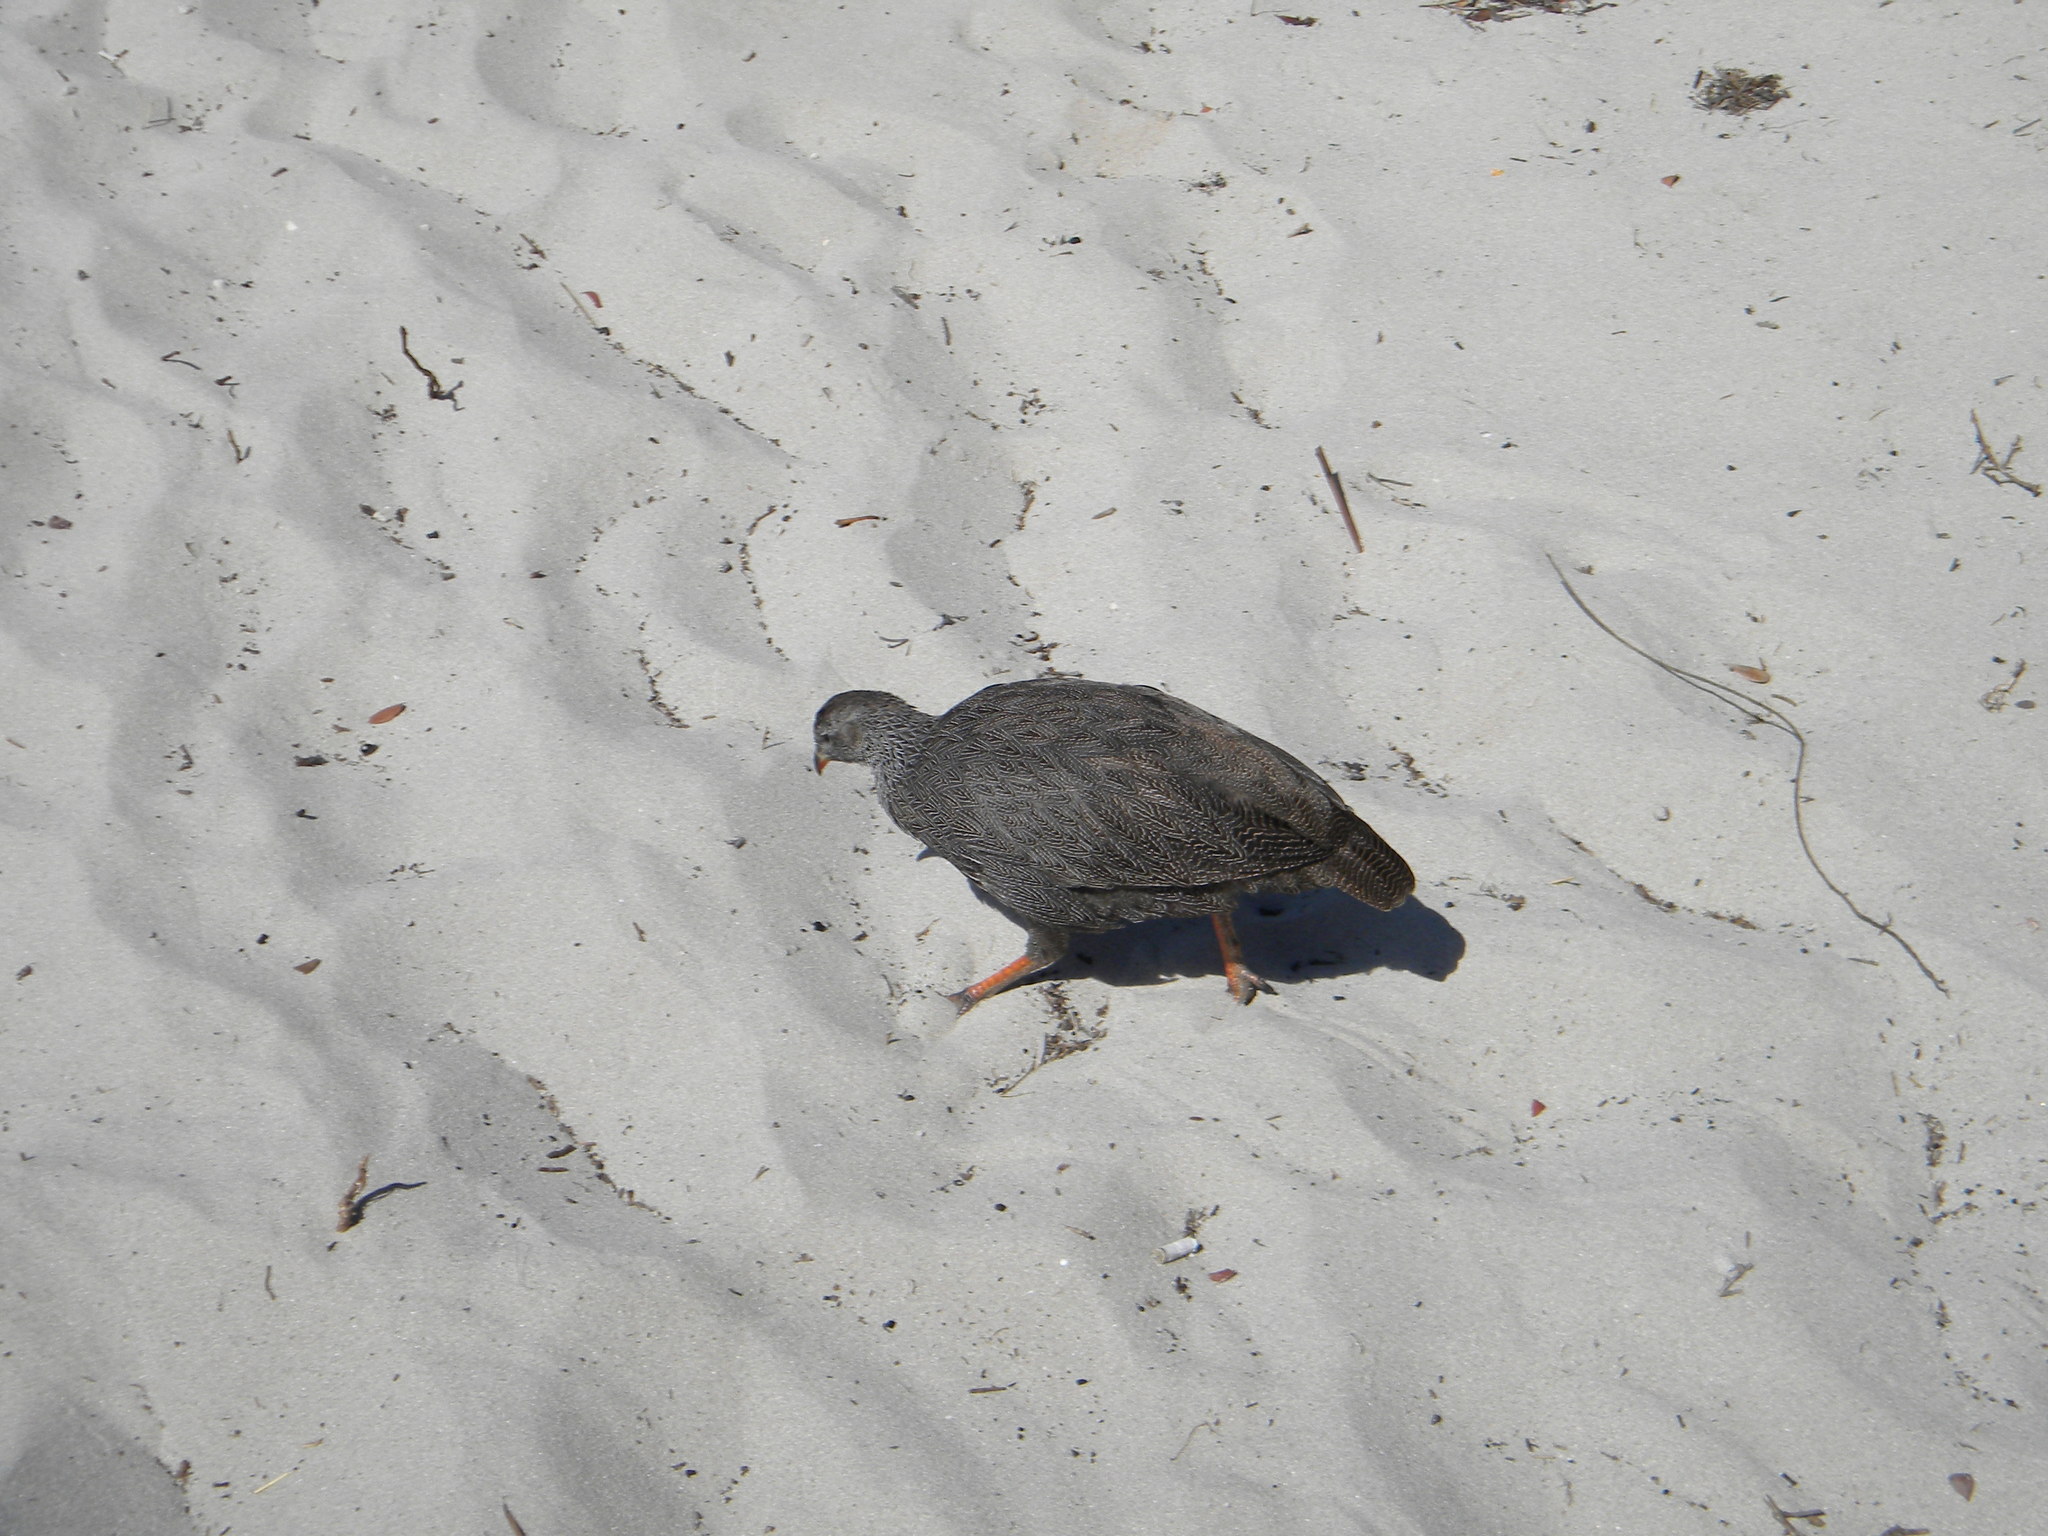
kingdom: Animalia
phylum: Chordata
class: Aves
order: Galliformes
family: Phasianidae
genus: Pternistis
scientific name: Pternistis capensis
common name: Cape spurfowl
